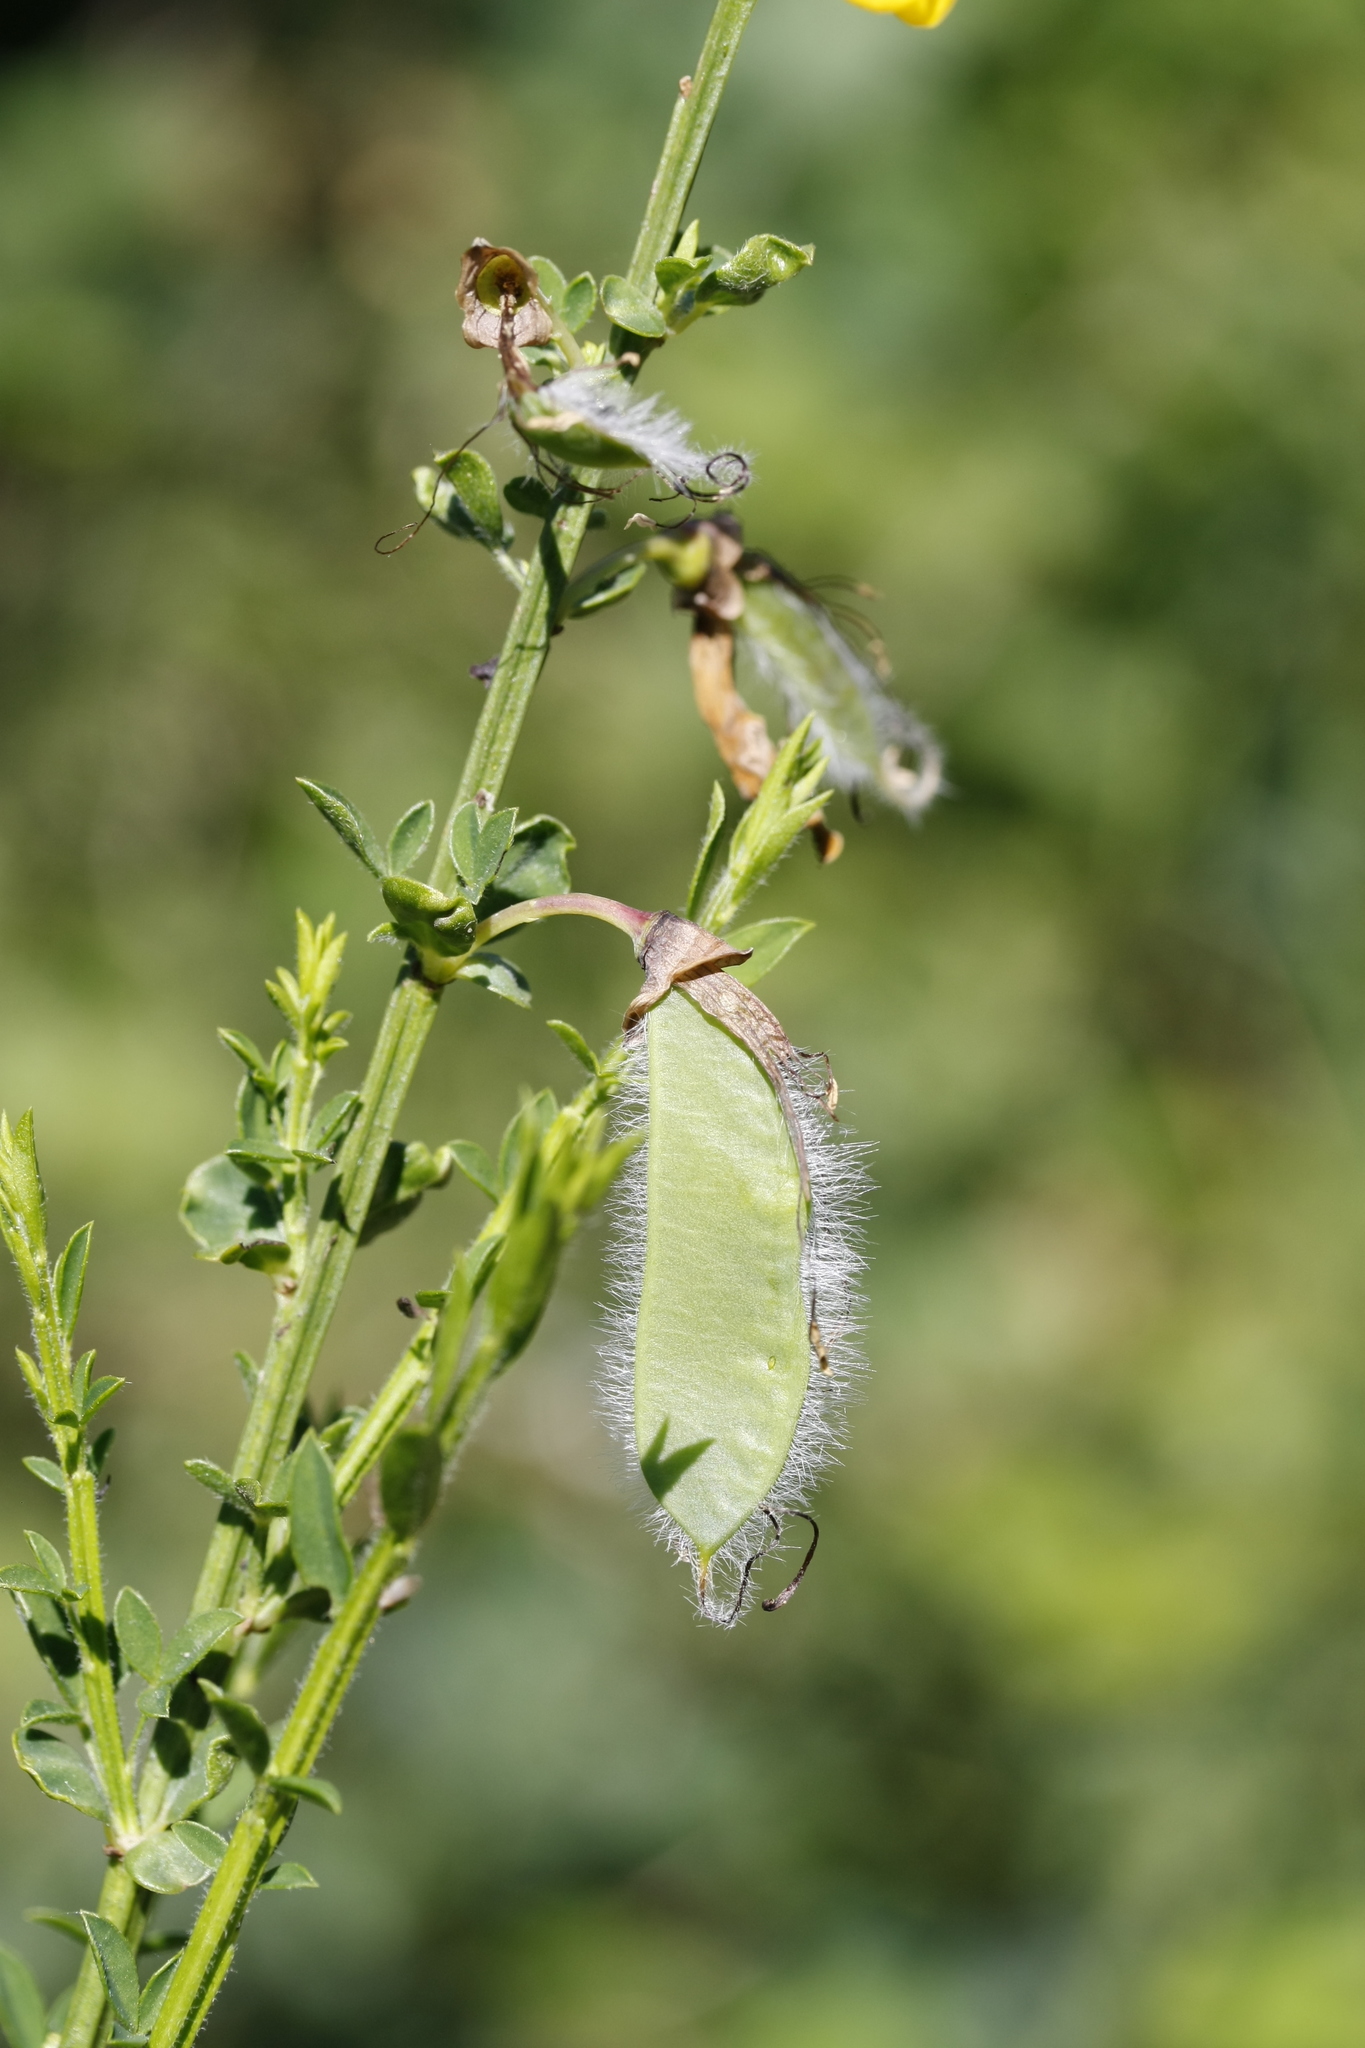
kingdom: Plantae
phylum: Tracheophyta
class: Magnoliopsida
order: Fabales
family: Fabaceae
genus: Cytisus
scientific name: Cytisus scoparius
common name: Scotch broom
